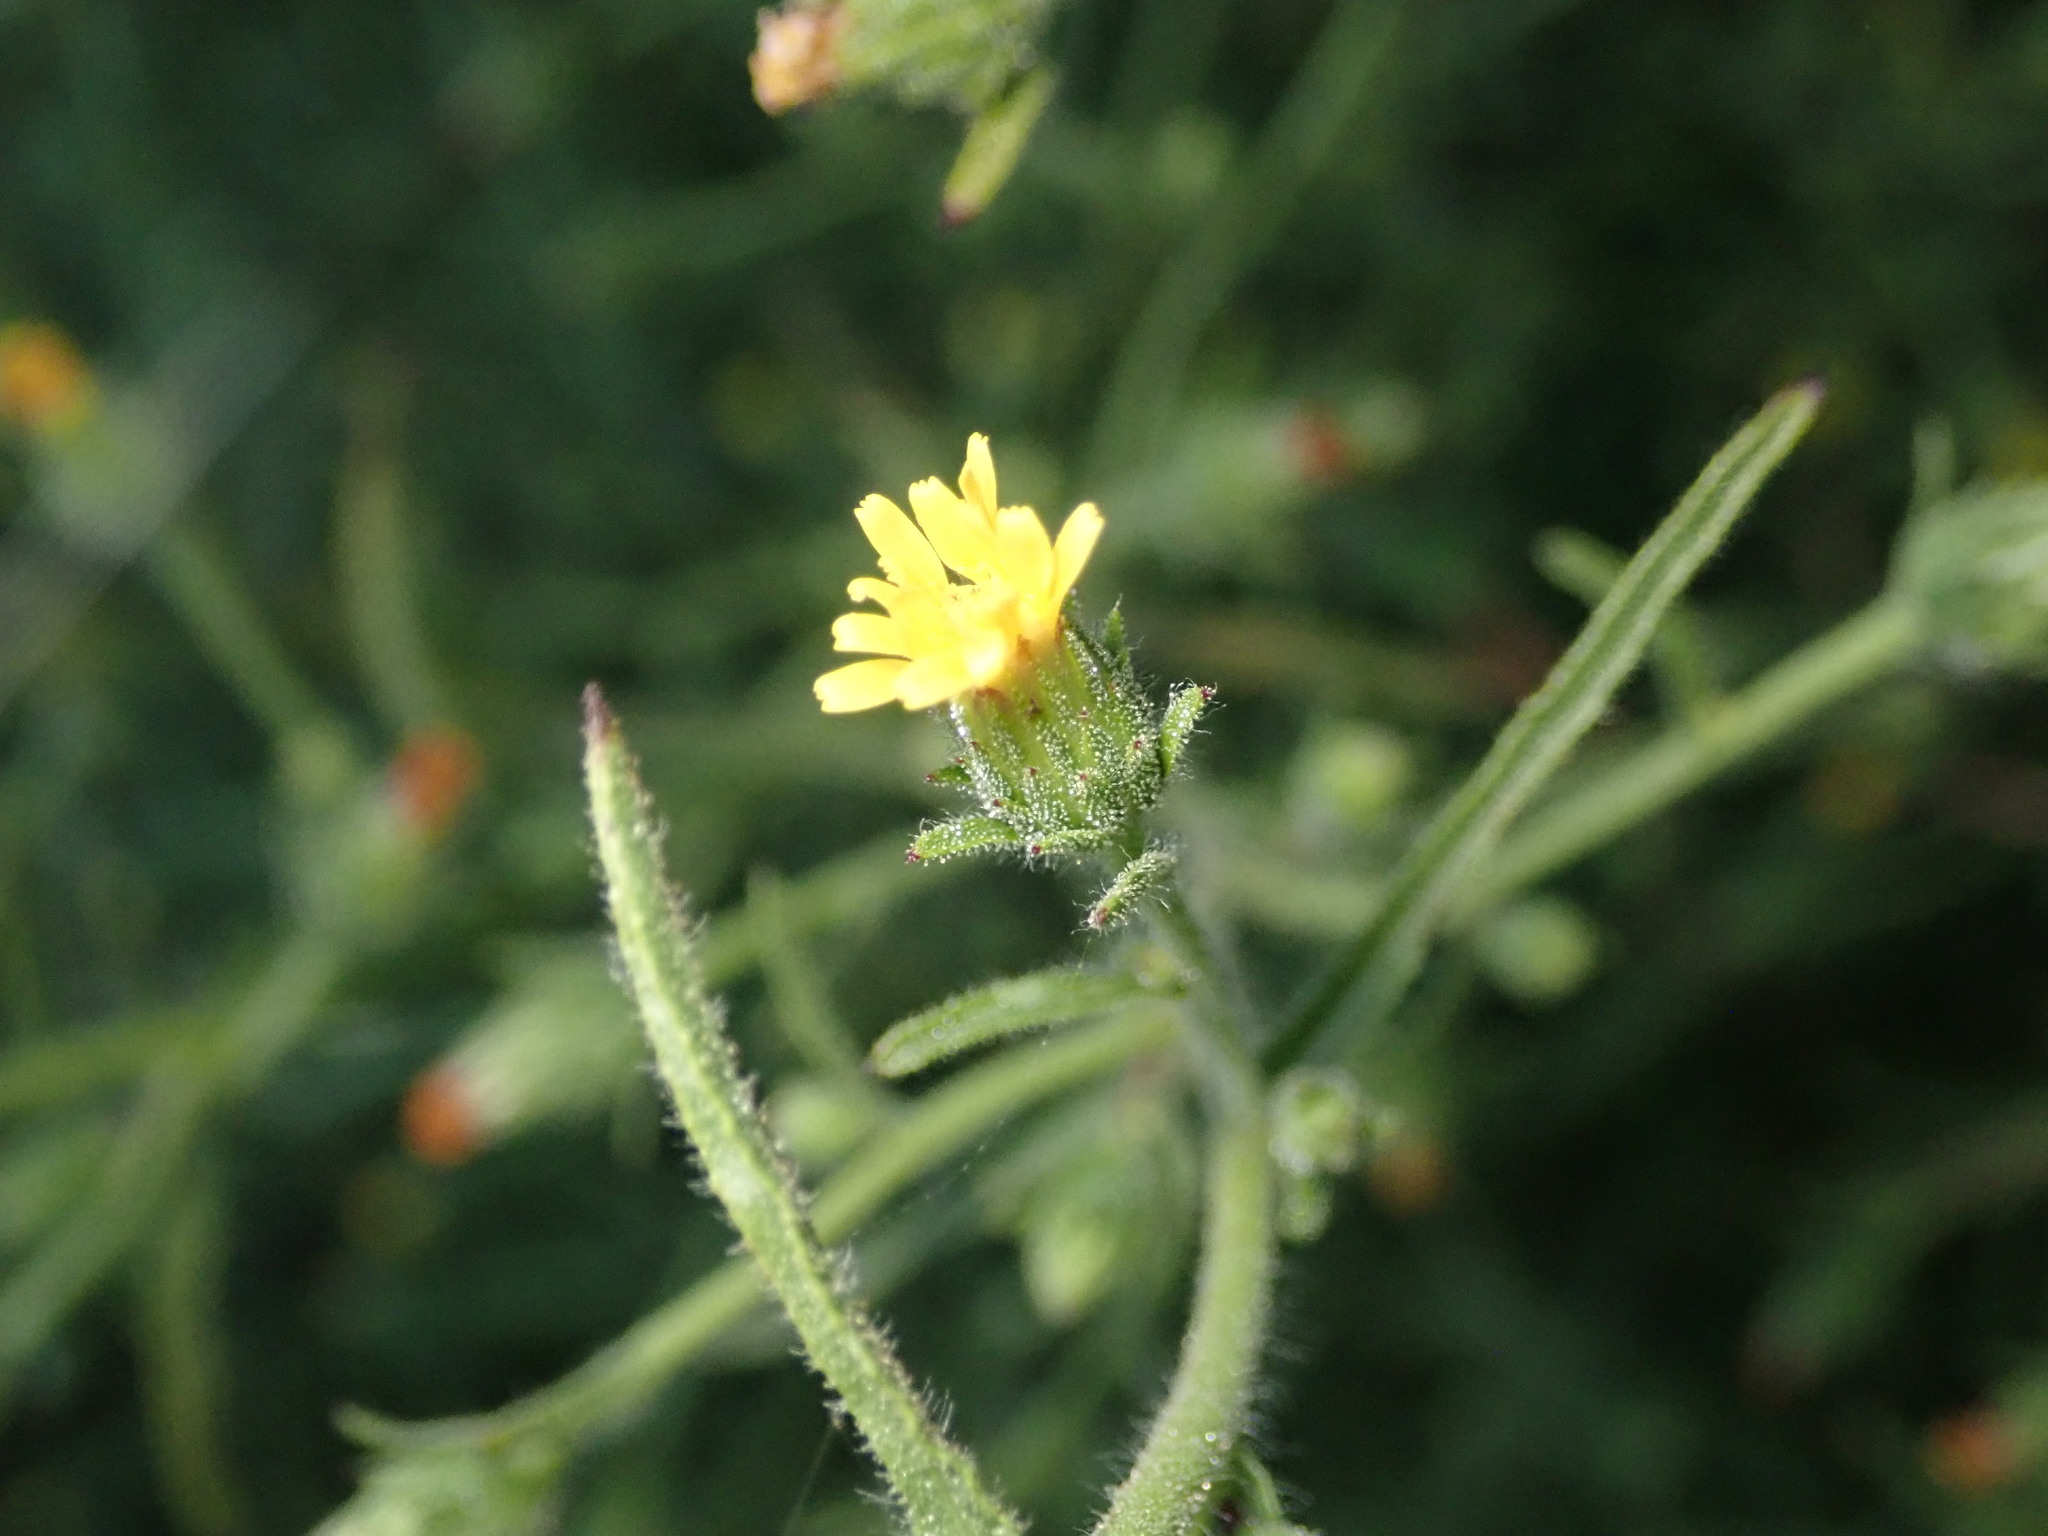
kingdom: Plantae
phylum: Tracheophyta
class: Magnoliopsida
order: Asterales
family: Asteraceae
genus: Dittrichia
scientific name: Dittrichia graveolens
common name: Stinking fleabane
